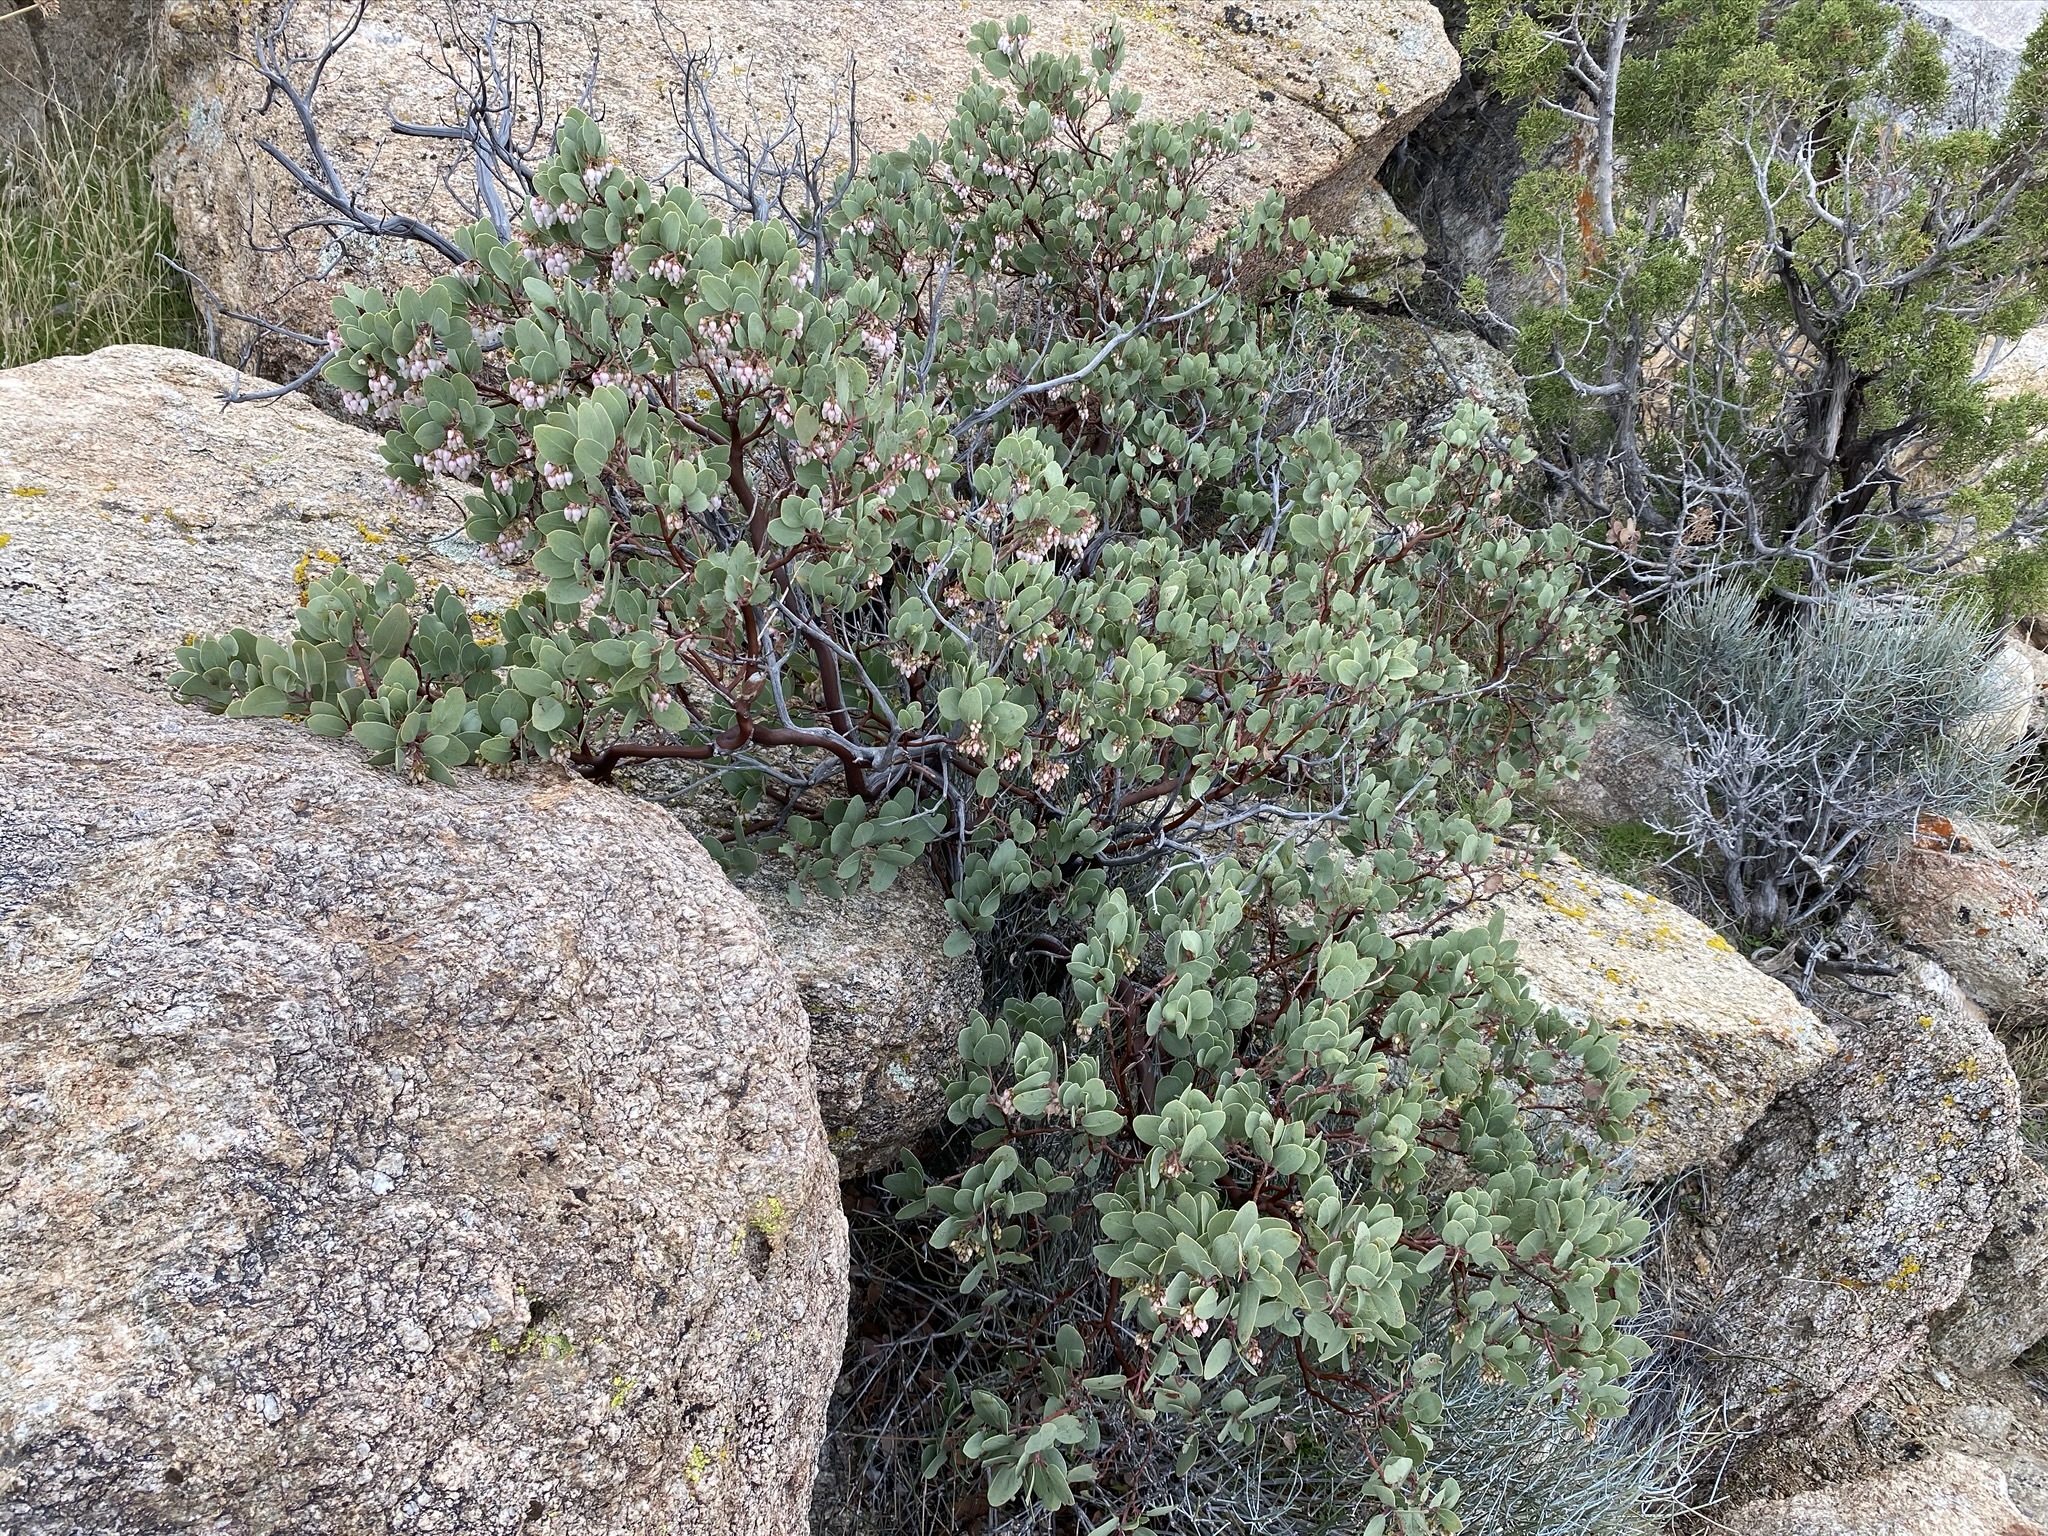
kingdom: Plantae
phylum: Tracheophyta
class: Magnoliopsida
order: Ericales
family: Ericaceae
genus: Arctostaphylos
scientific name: Arctostaphylos glauca
